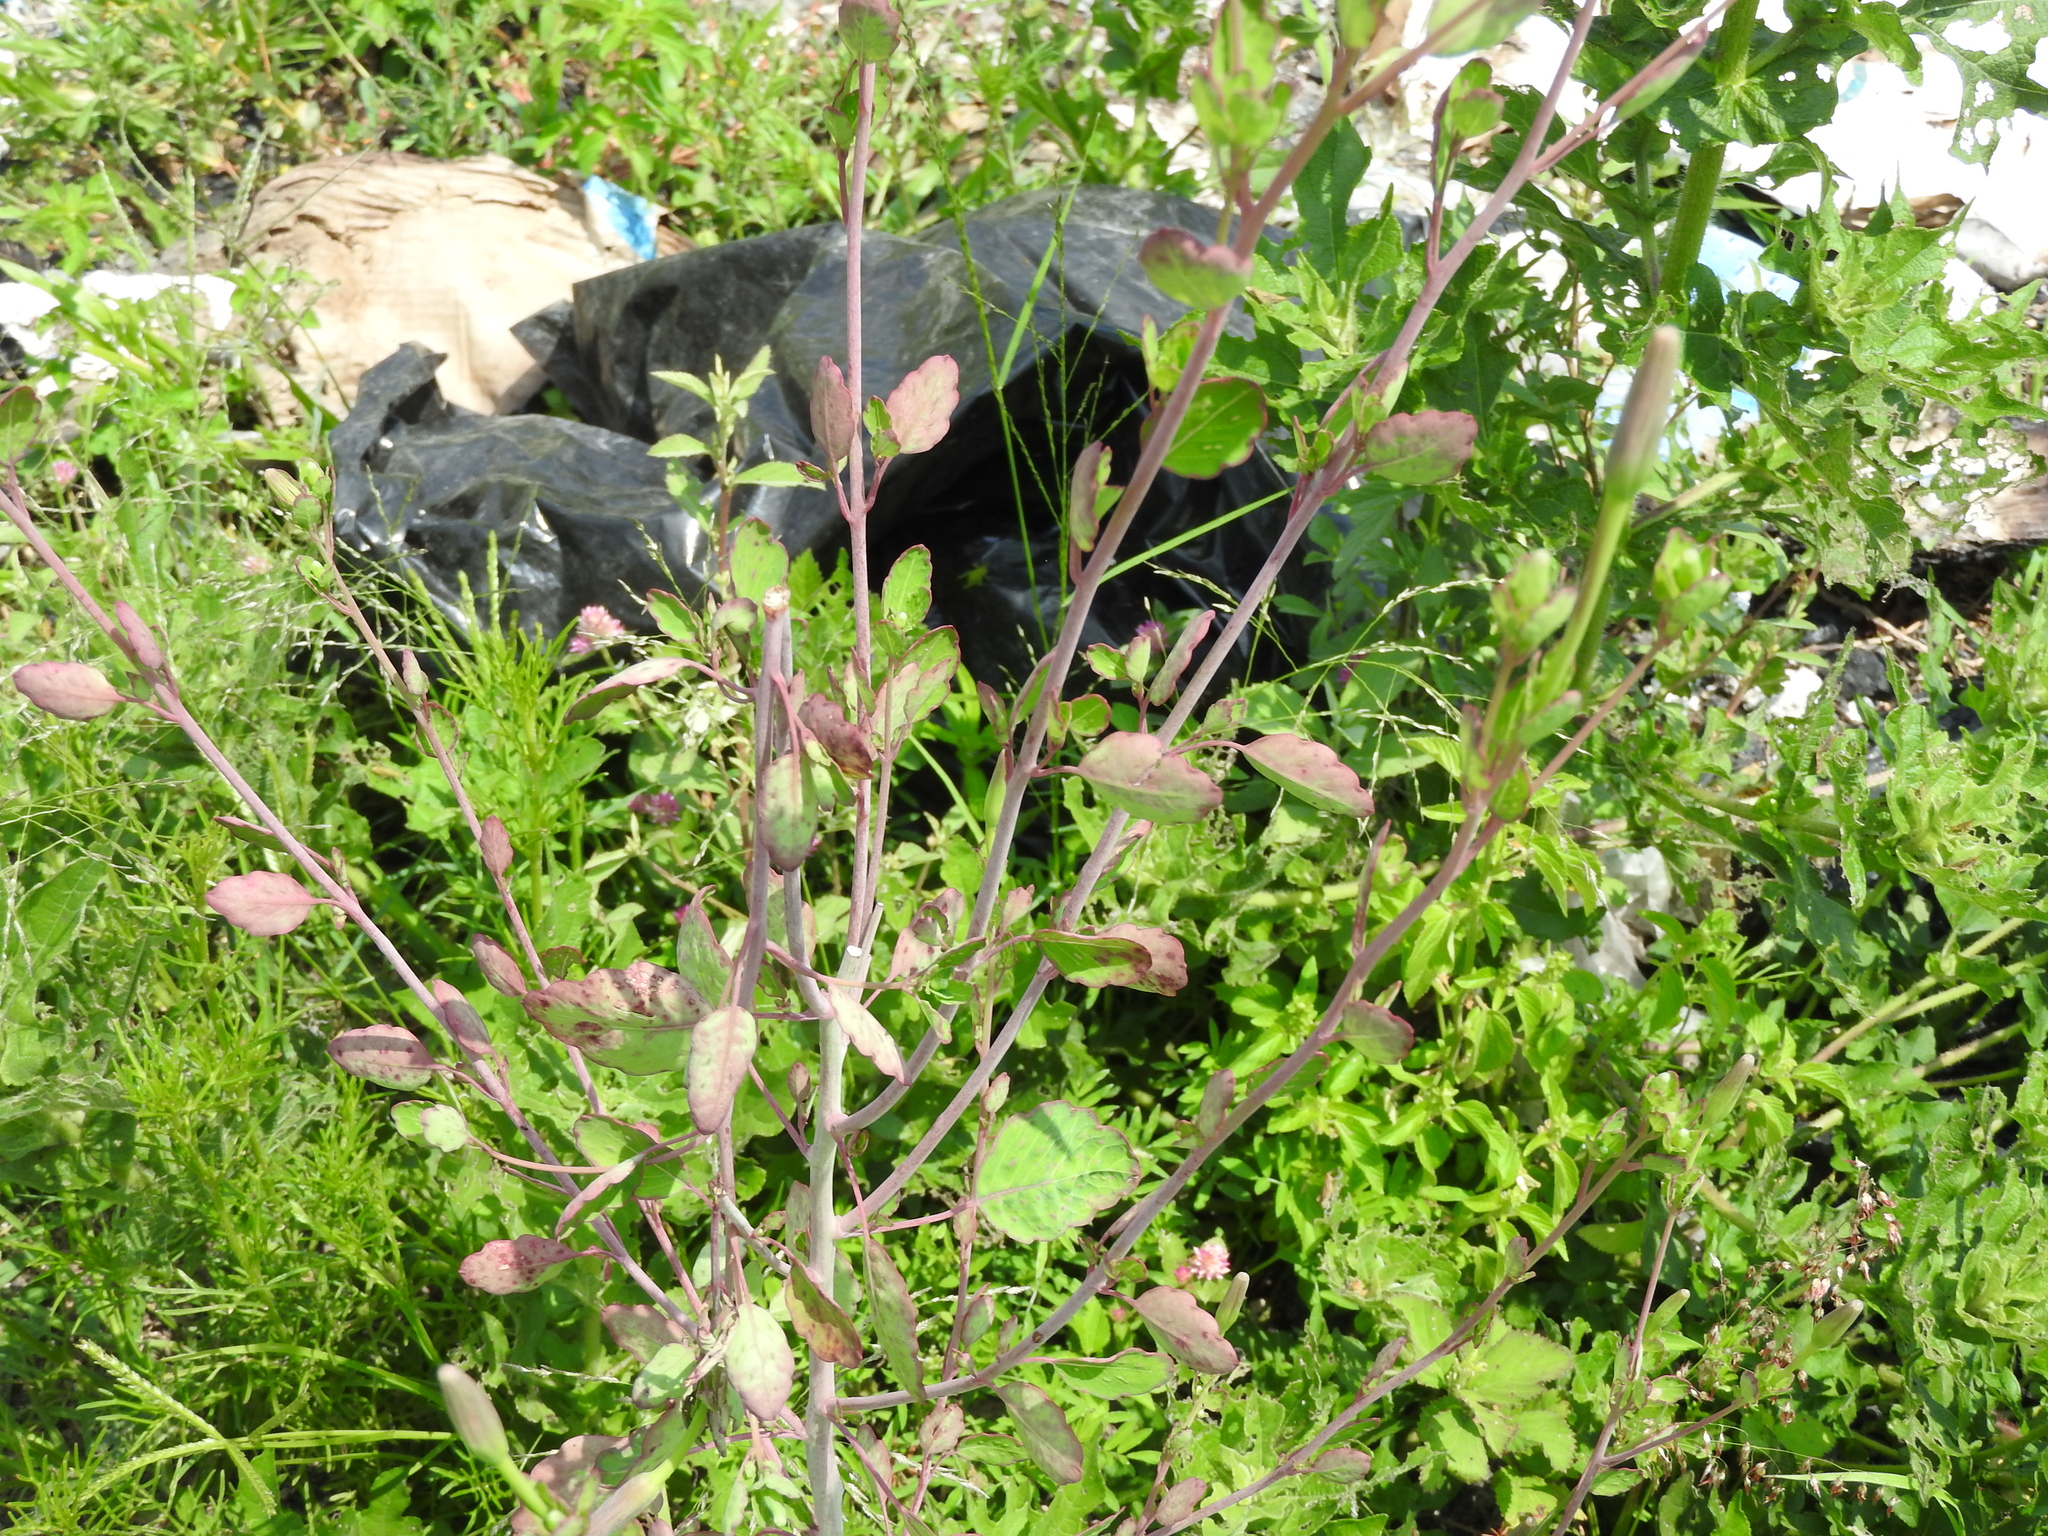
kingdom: Plantae
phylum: Tracheophyta
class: Magnoliopsida
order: Asterales
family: Asteraceae
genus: Porophyllum
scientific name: Porophyllum ruderale
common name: Yerba porosa
